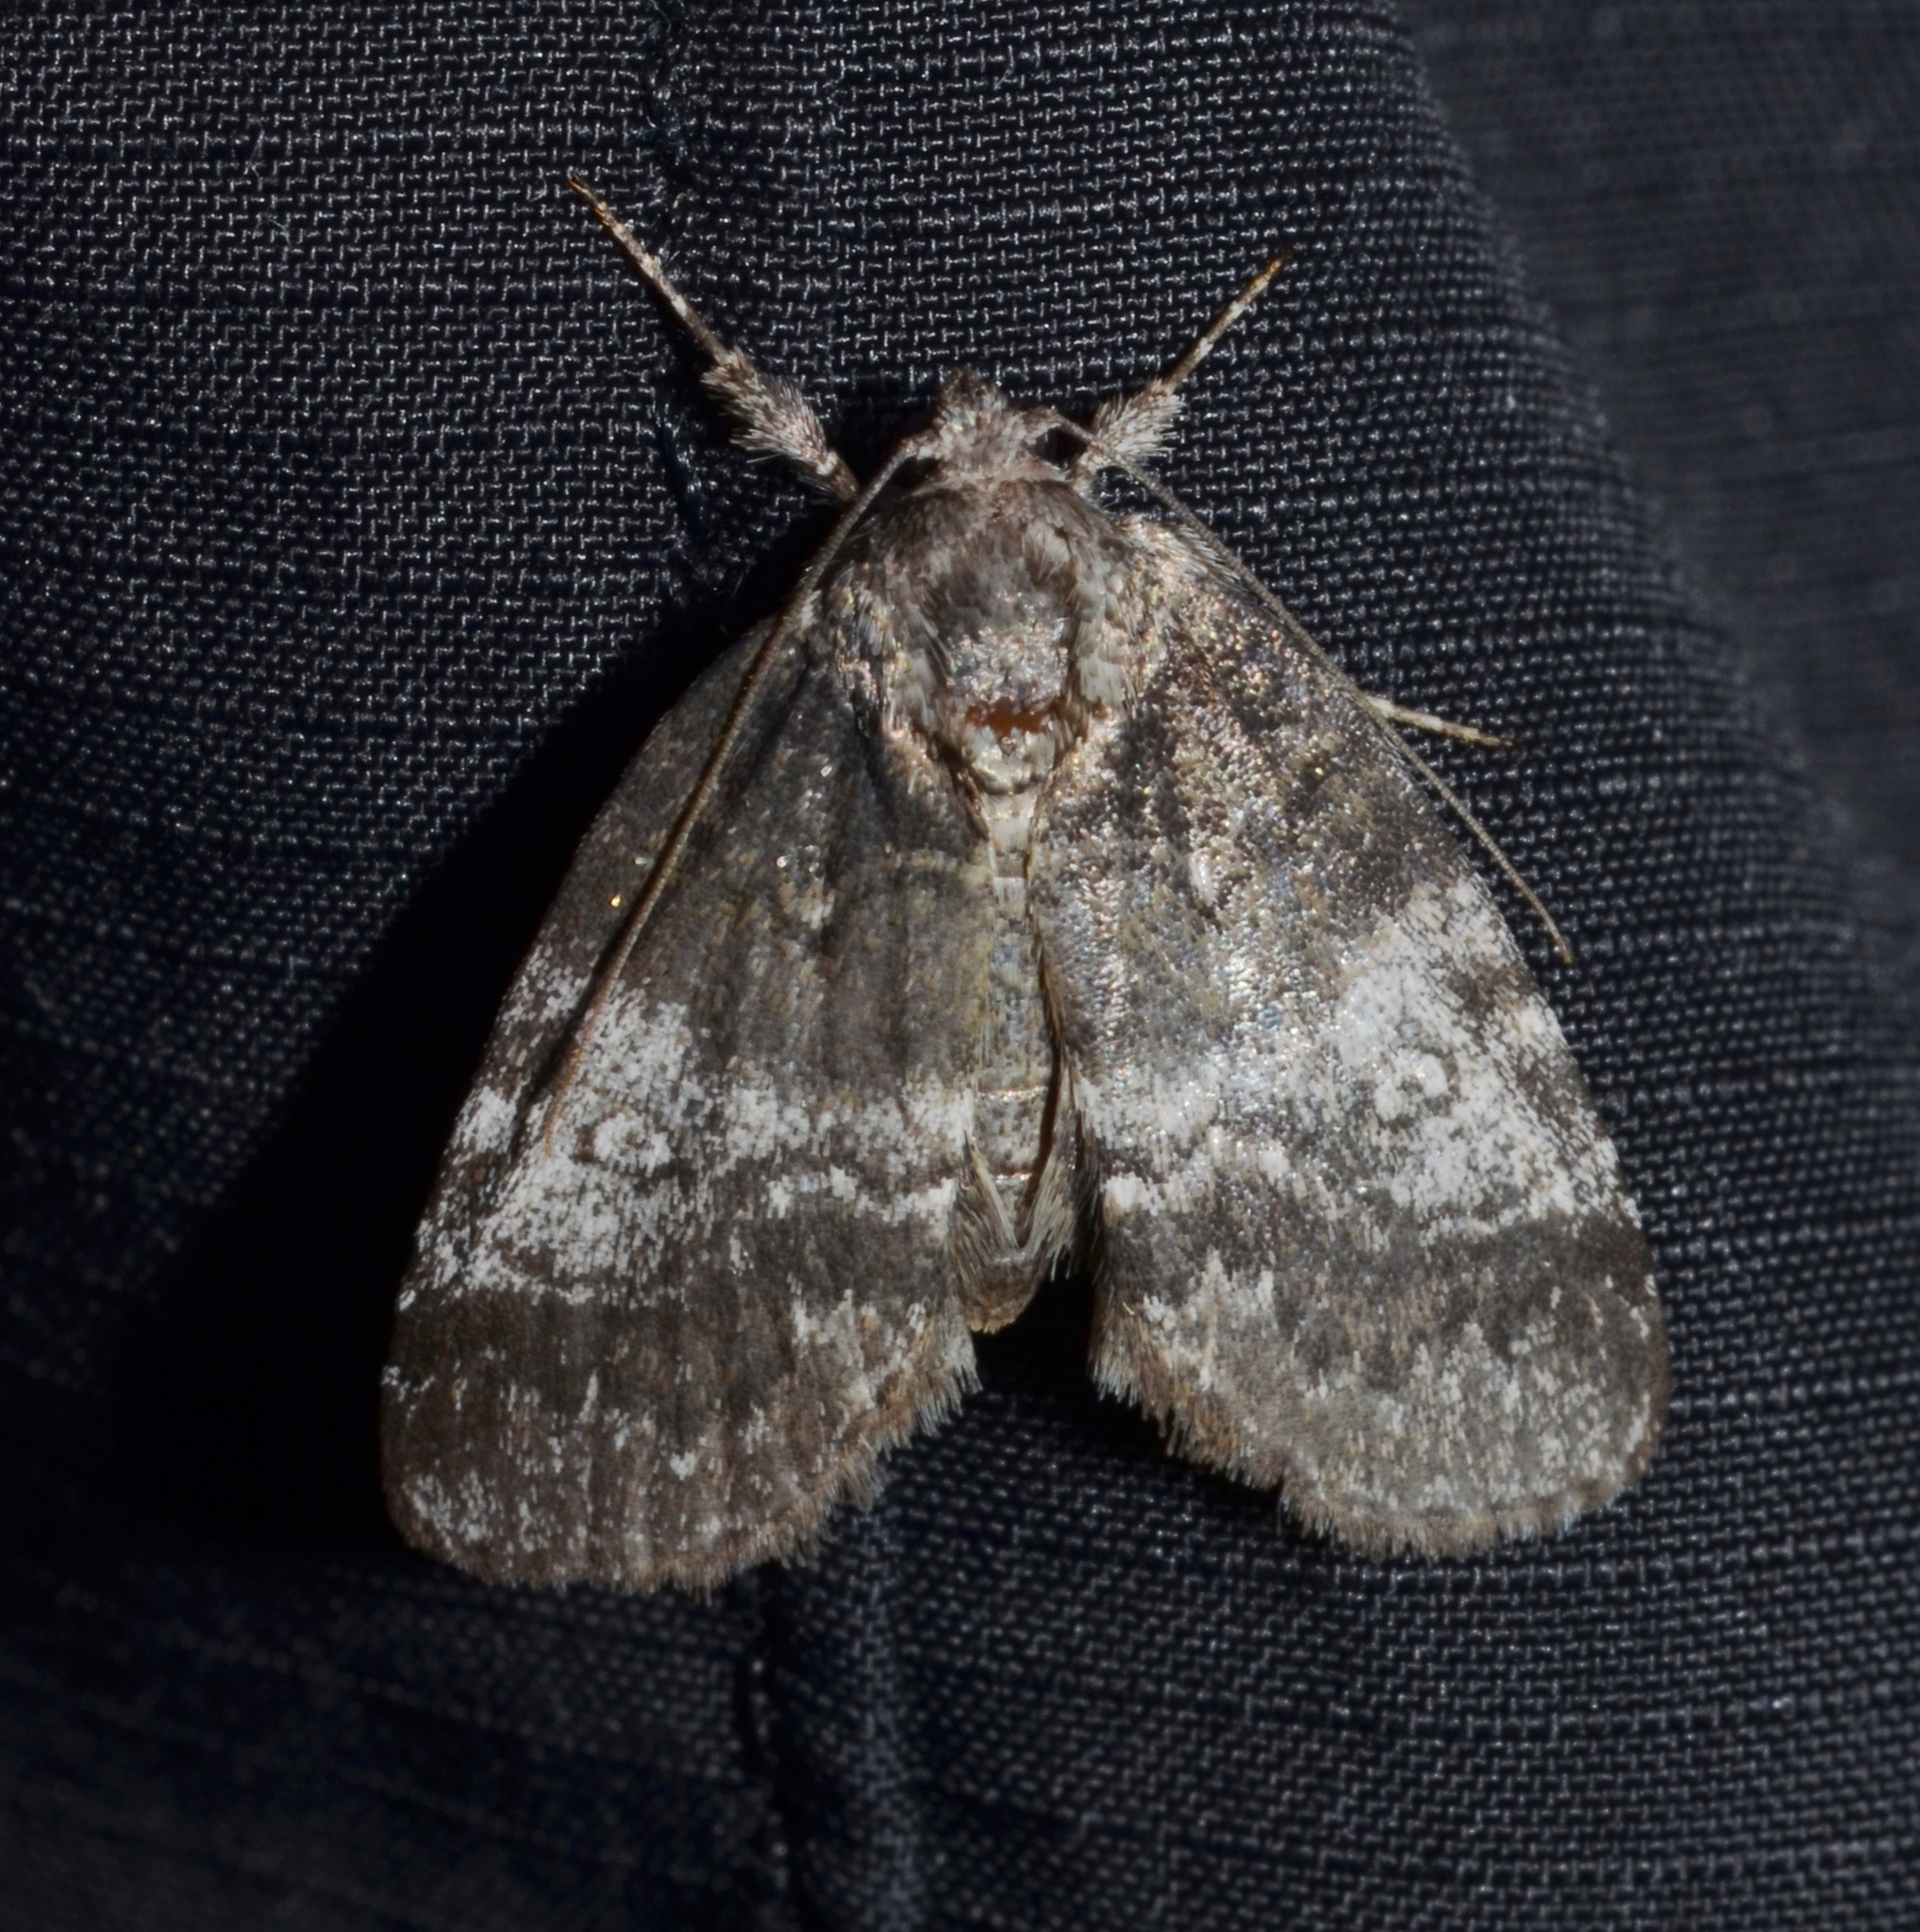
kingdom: Animalia
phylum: Arthropoda
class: Insecta
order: Lepidoptera
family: Nolidae
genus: Baileya
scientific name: Baileya levitans
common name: Pale baileya
